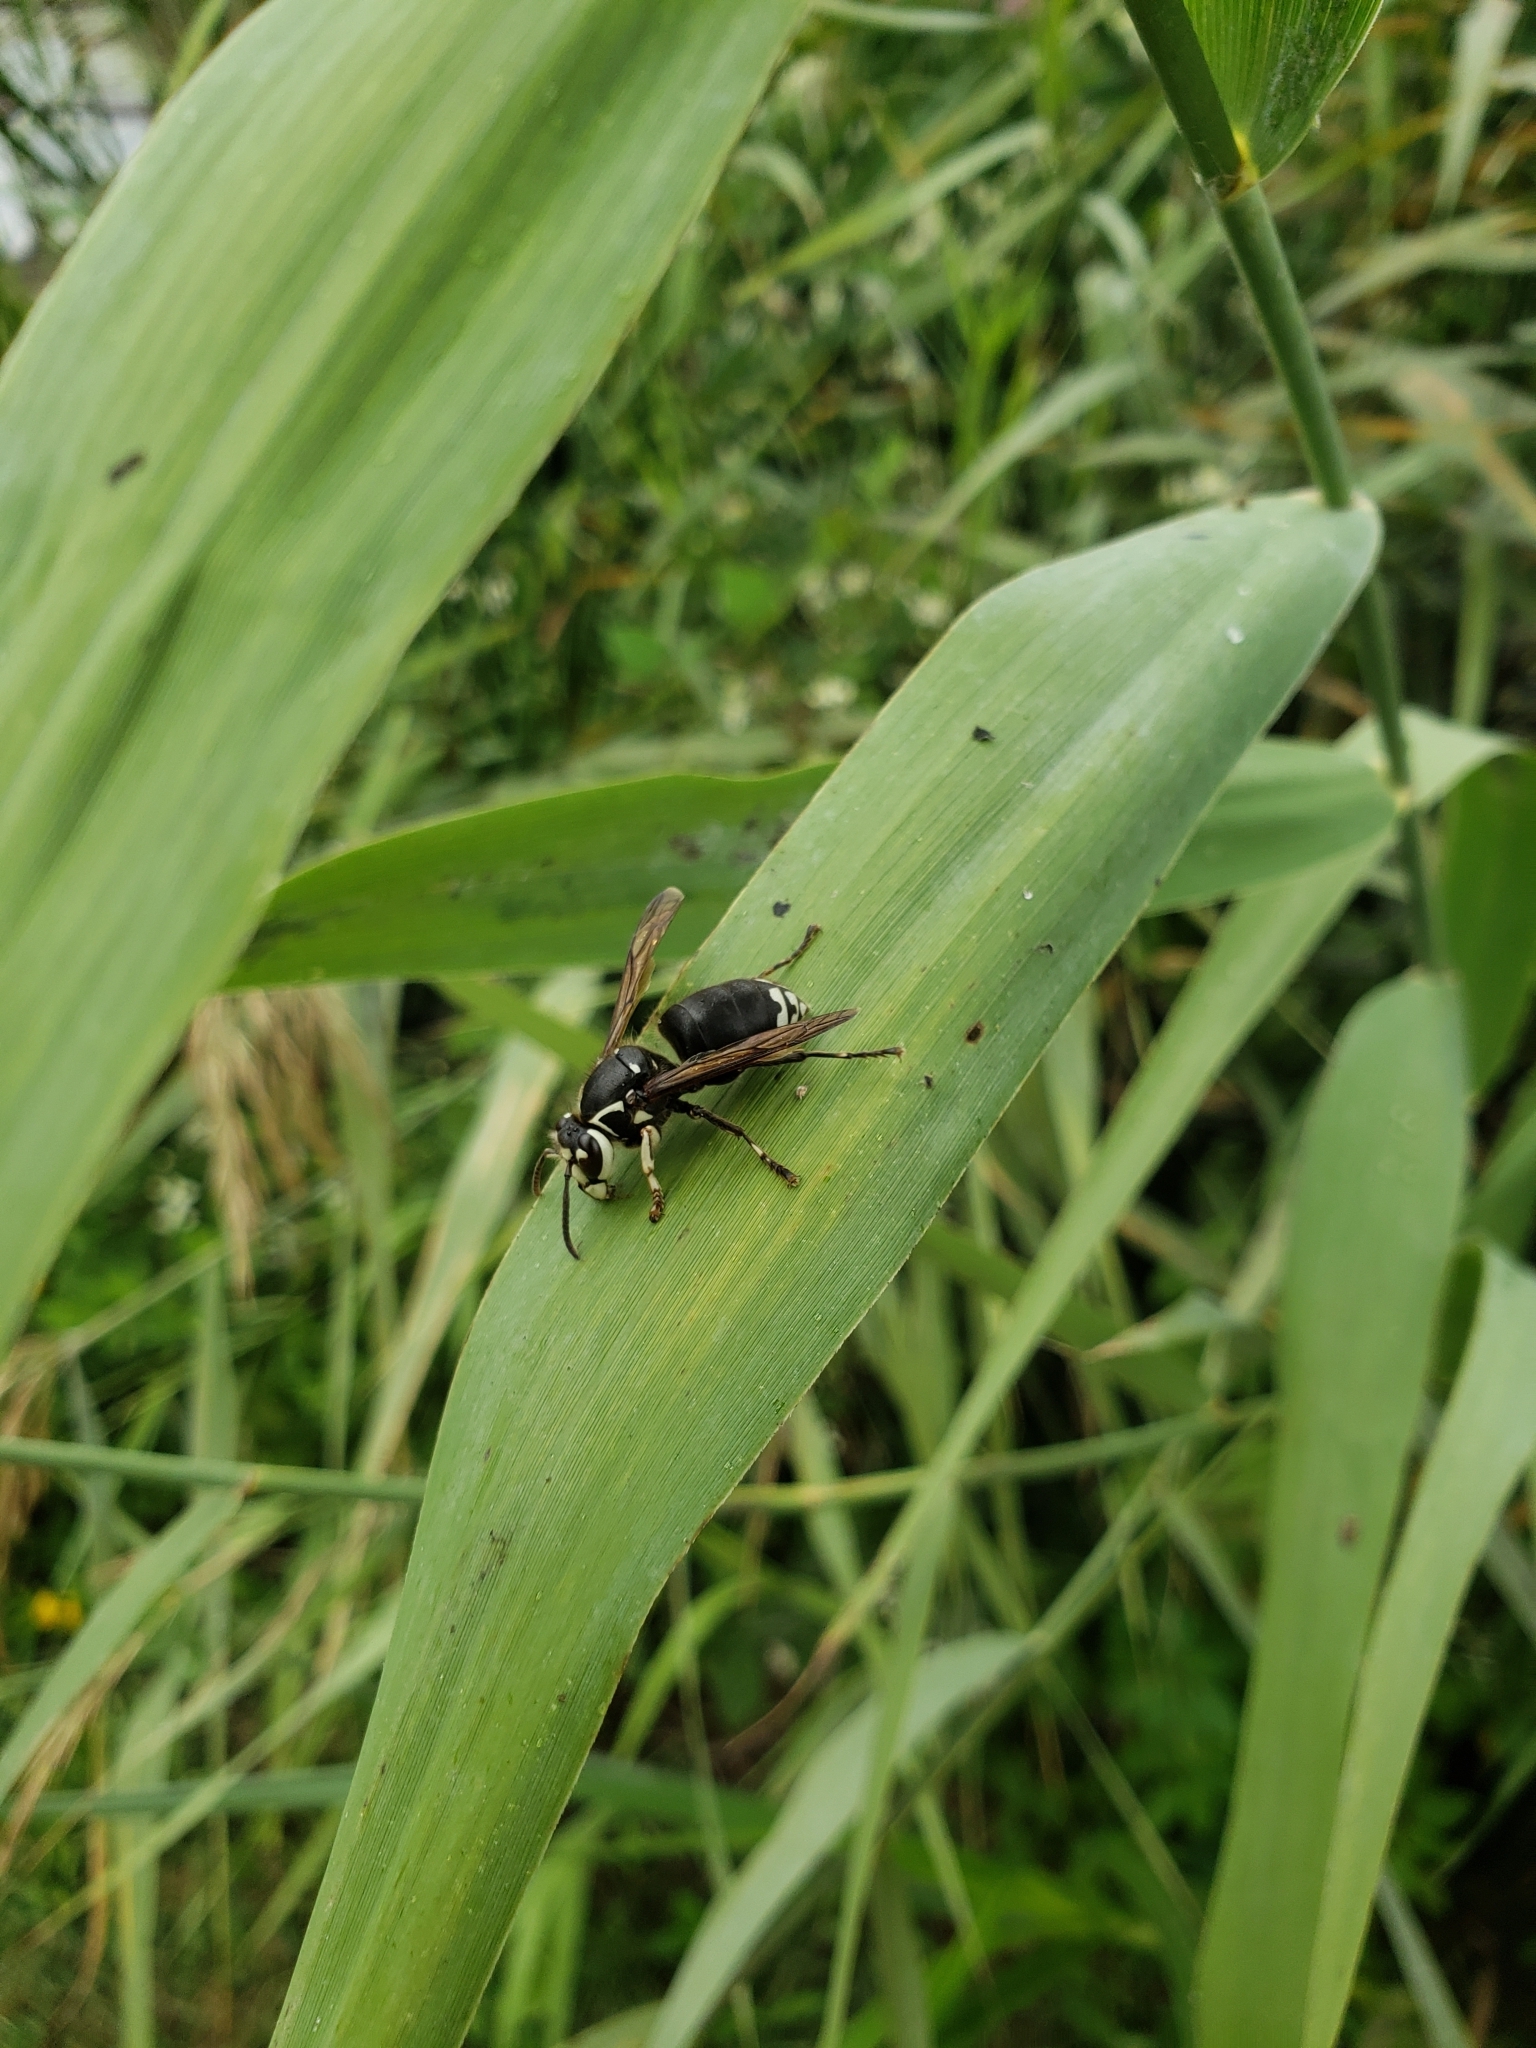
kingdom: Animalia
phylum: Arthropoda
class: Insecta
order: Hymenoptera
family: Vespidae
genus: Dolichovespula
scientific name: Dolichovespula maculata
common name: Bald-faced hornet
